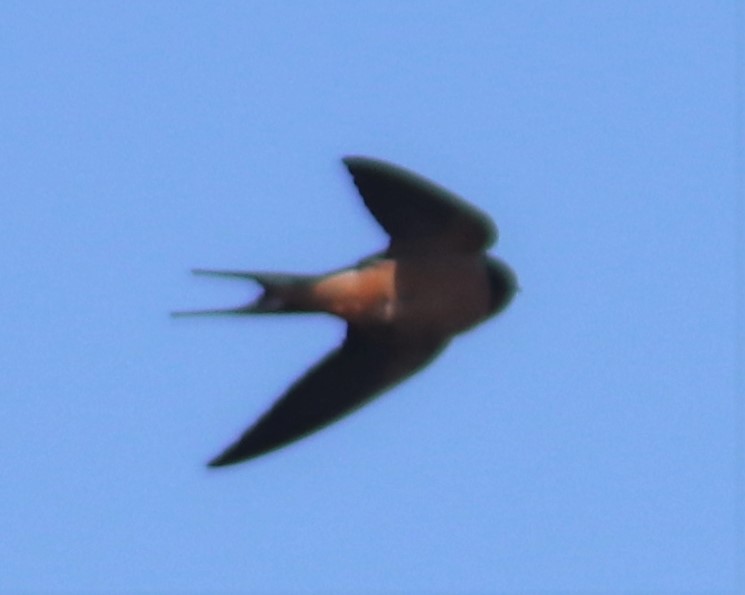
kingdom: Animalia
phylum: Chordata
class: Aves
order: Passeriformes
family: Hirundinidae
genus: Hirundo
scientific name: Hirundo rustica
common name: Barn swallow
